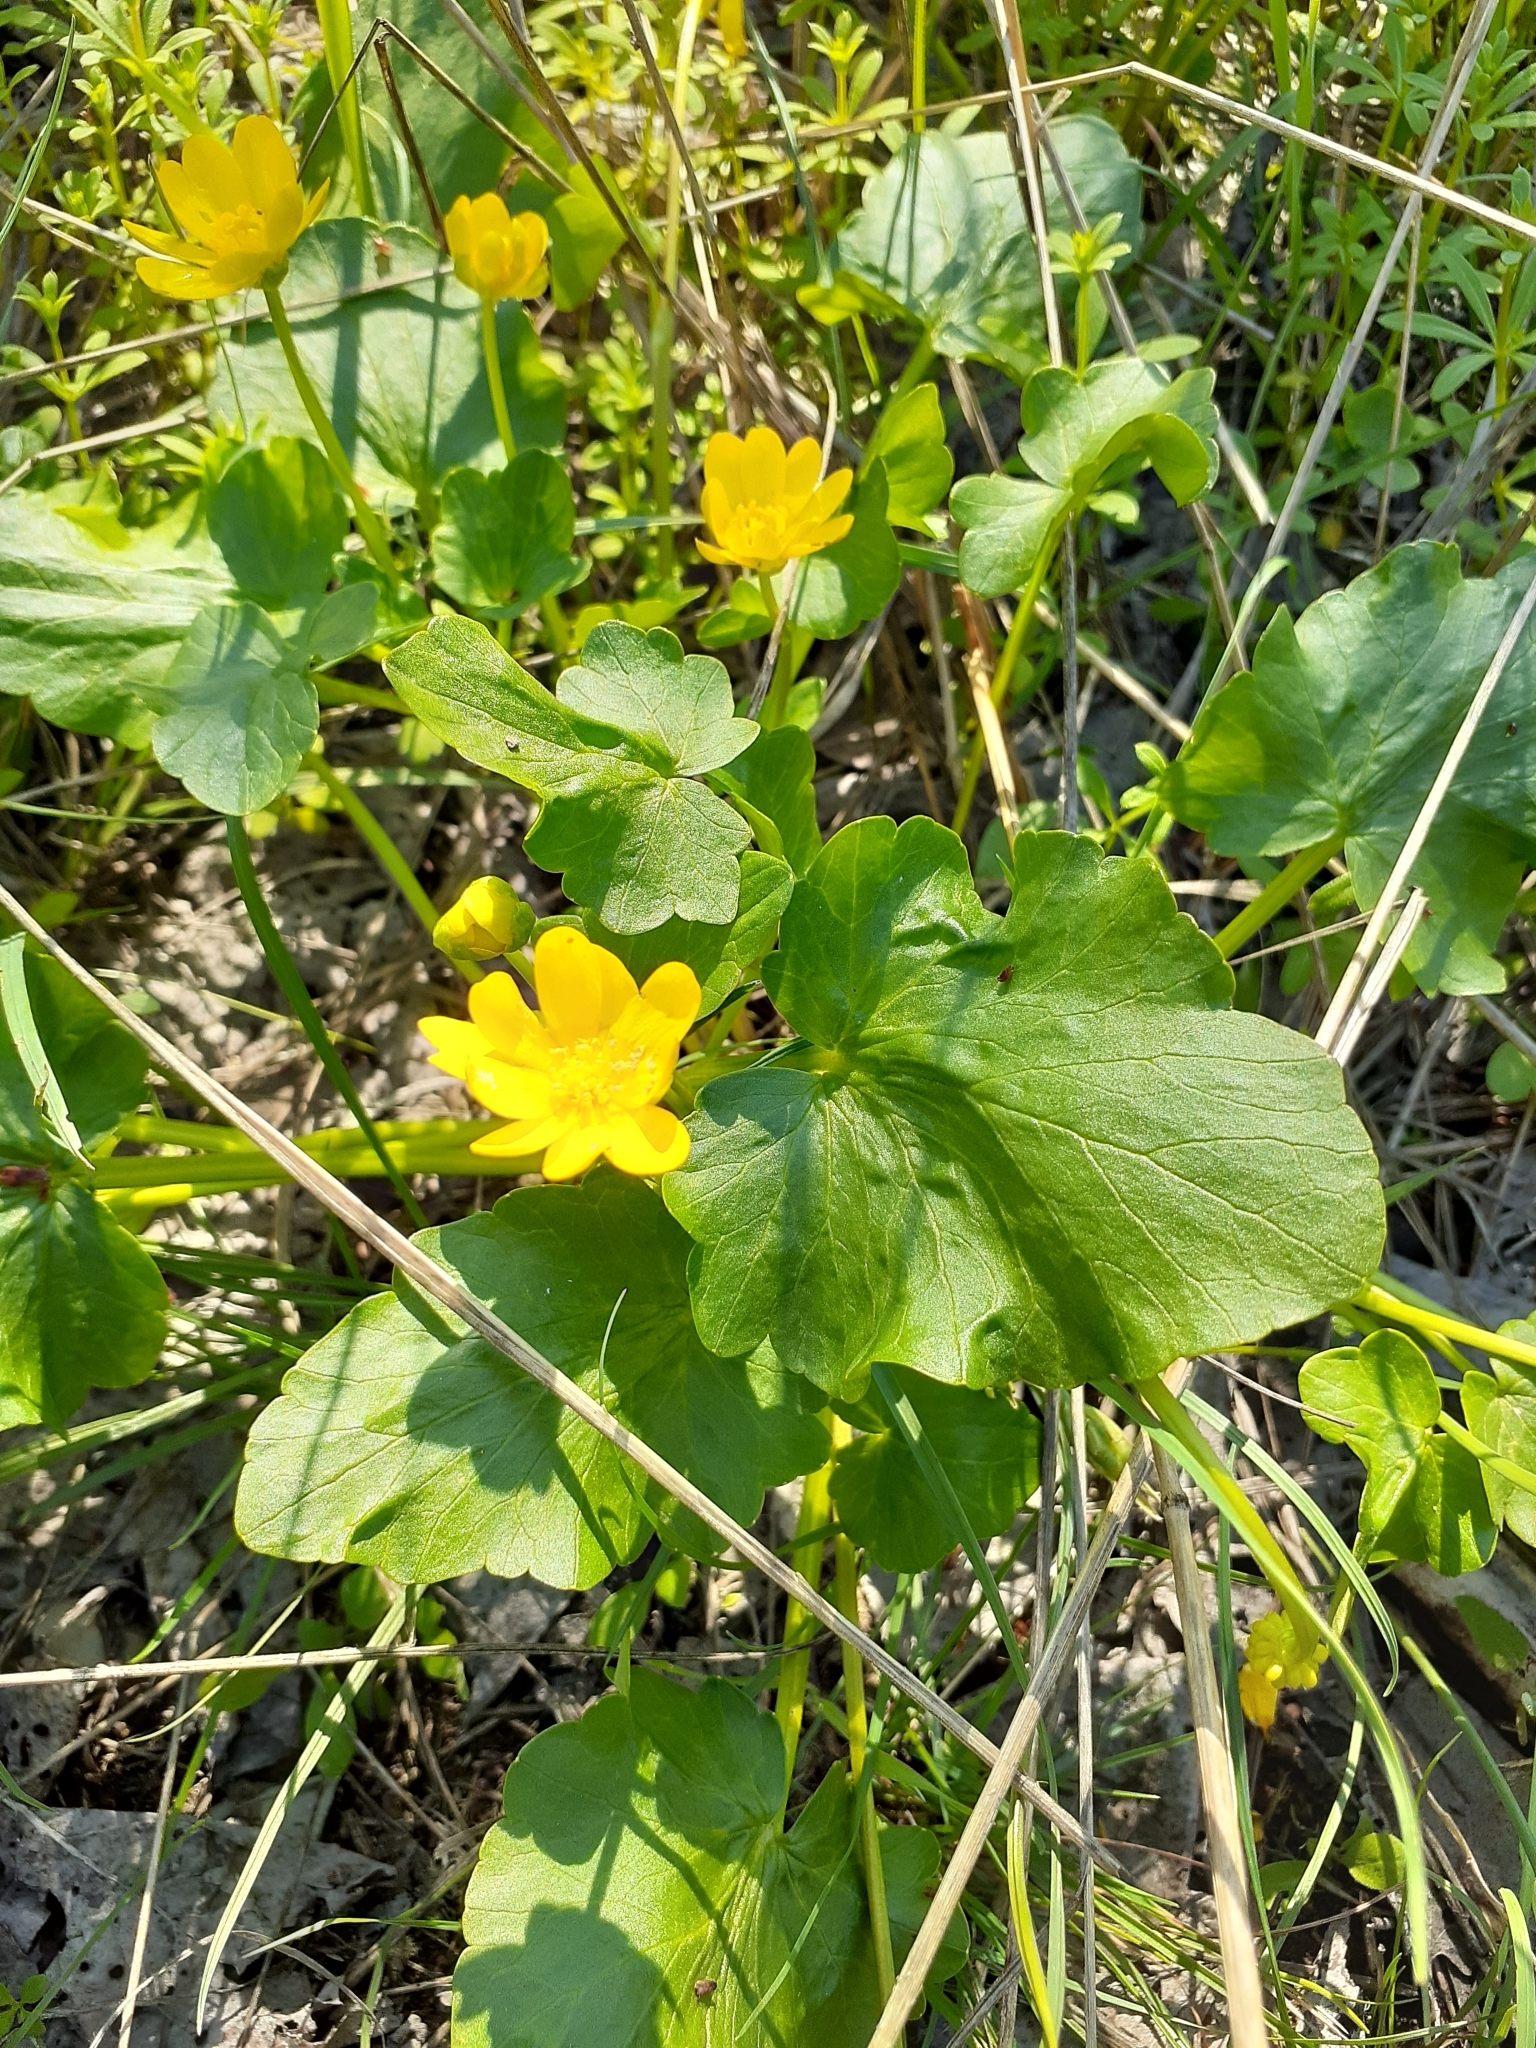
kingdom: Plantae
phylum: Tracheophyta
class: Magnoliopsida
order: Ranunculales
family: Ranunculaceae
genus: Ficaria
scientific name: Ficaria
